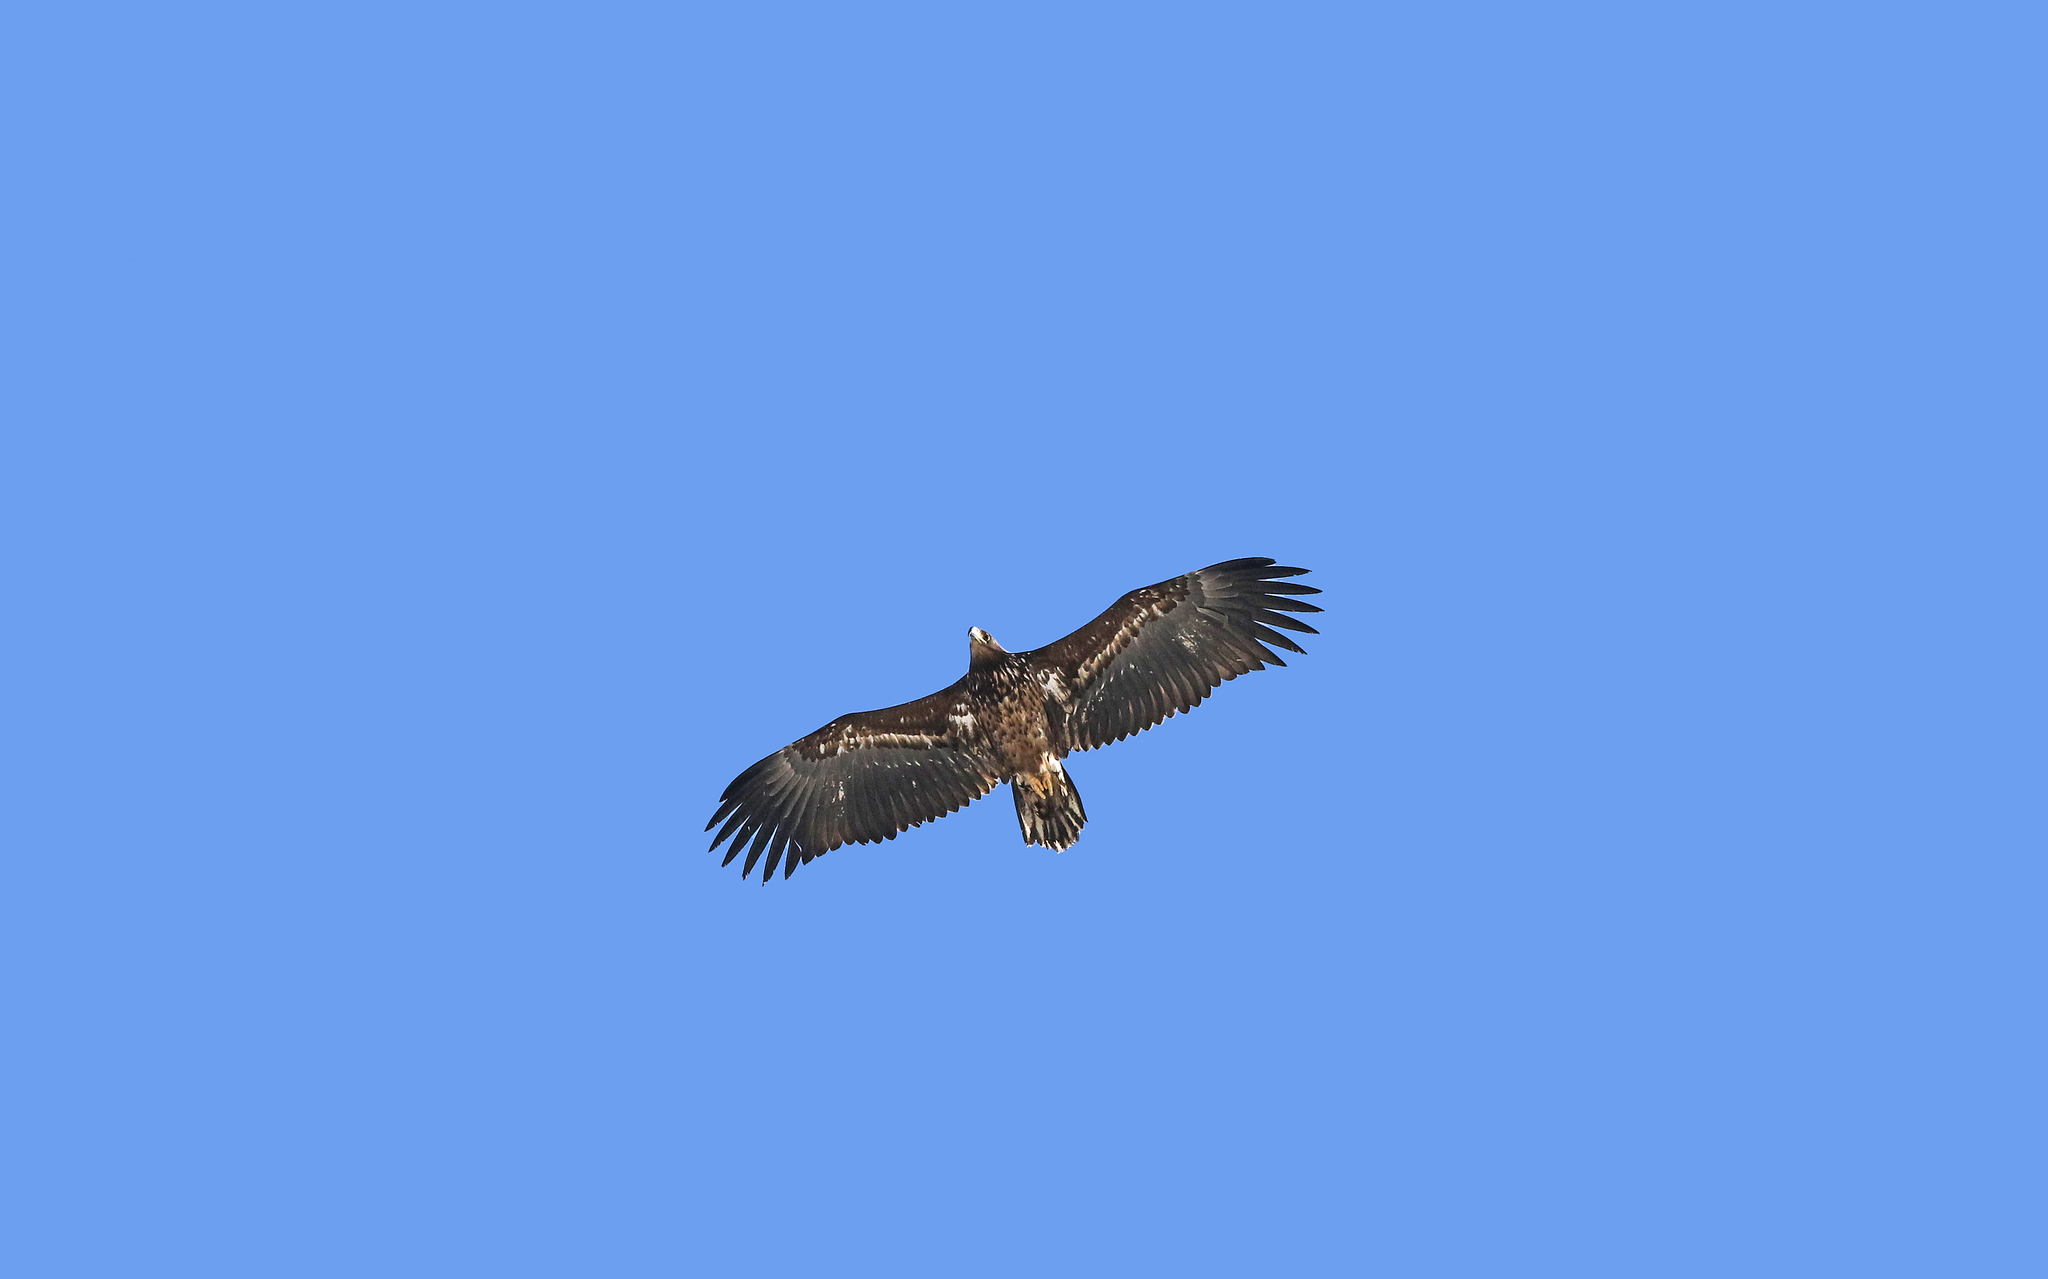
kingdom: Animalia
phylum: Chordata
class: Aves
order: Accipitriformes
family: Accipitridae
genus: Haliaeetus
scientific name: Haliaeetus albicilla
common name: White-tailed eagle
